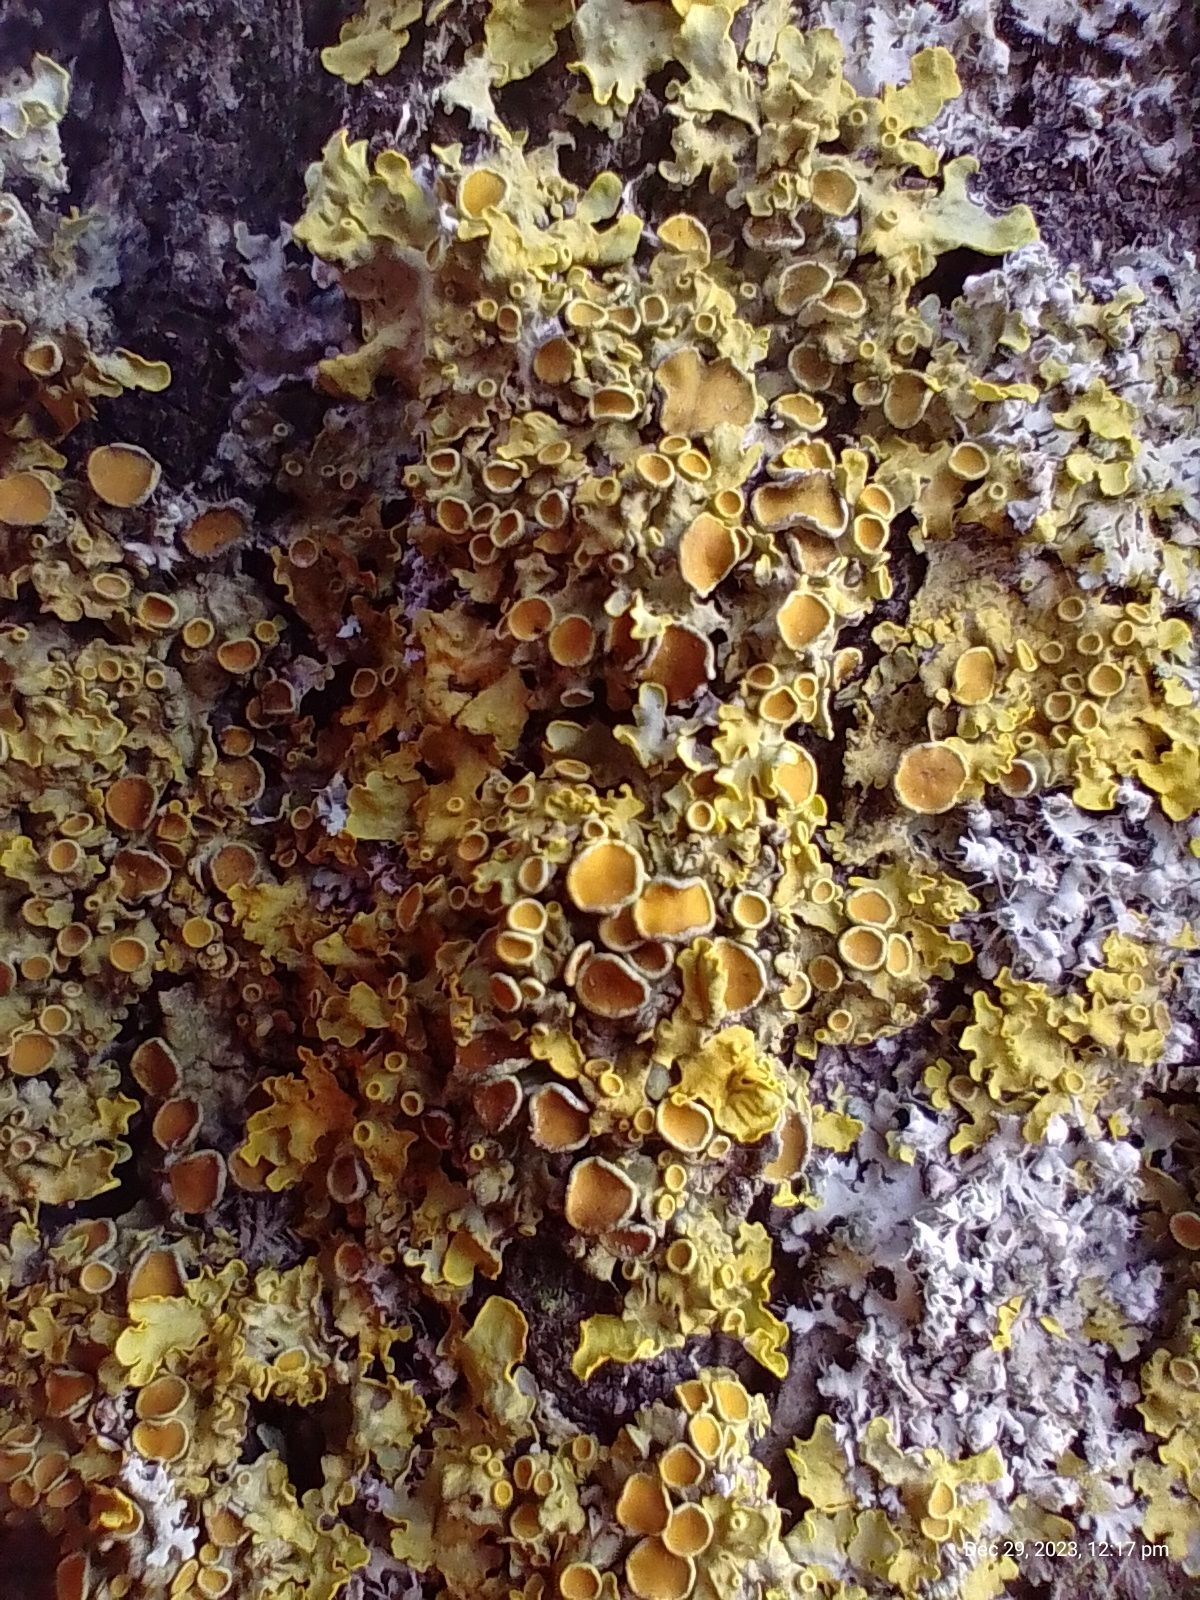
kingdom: Fungi
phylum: Ascomycota
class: Lecanoromycetes
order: Teloschistales
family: Teloschistaceae
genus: Xanthoria
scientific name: Xanthoria parietina
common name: Common orange lichen
